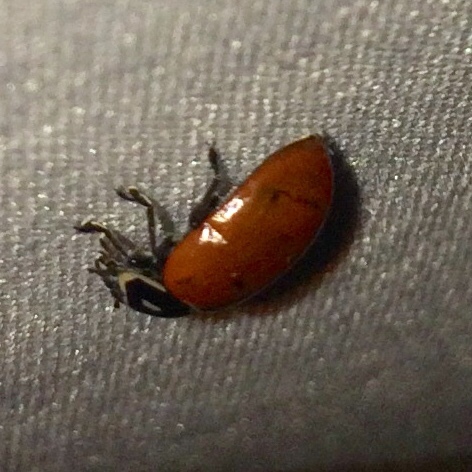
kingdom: Animalia
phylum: Arthropoda
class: Insecta
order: Coleoptera
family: Coccinellidae
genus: Hippodamia
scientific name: Hippodamia convergens
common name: Convergent lady beetle
